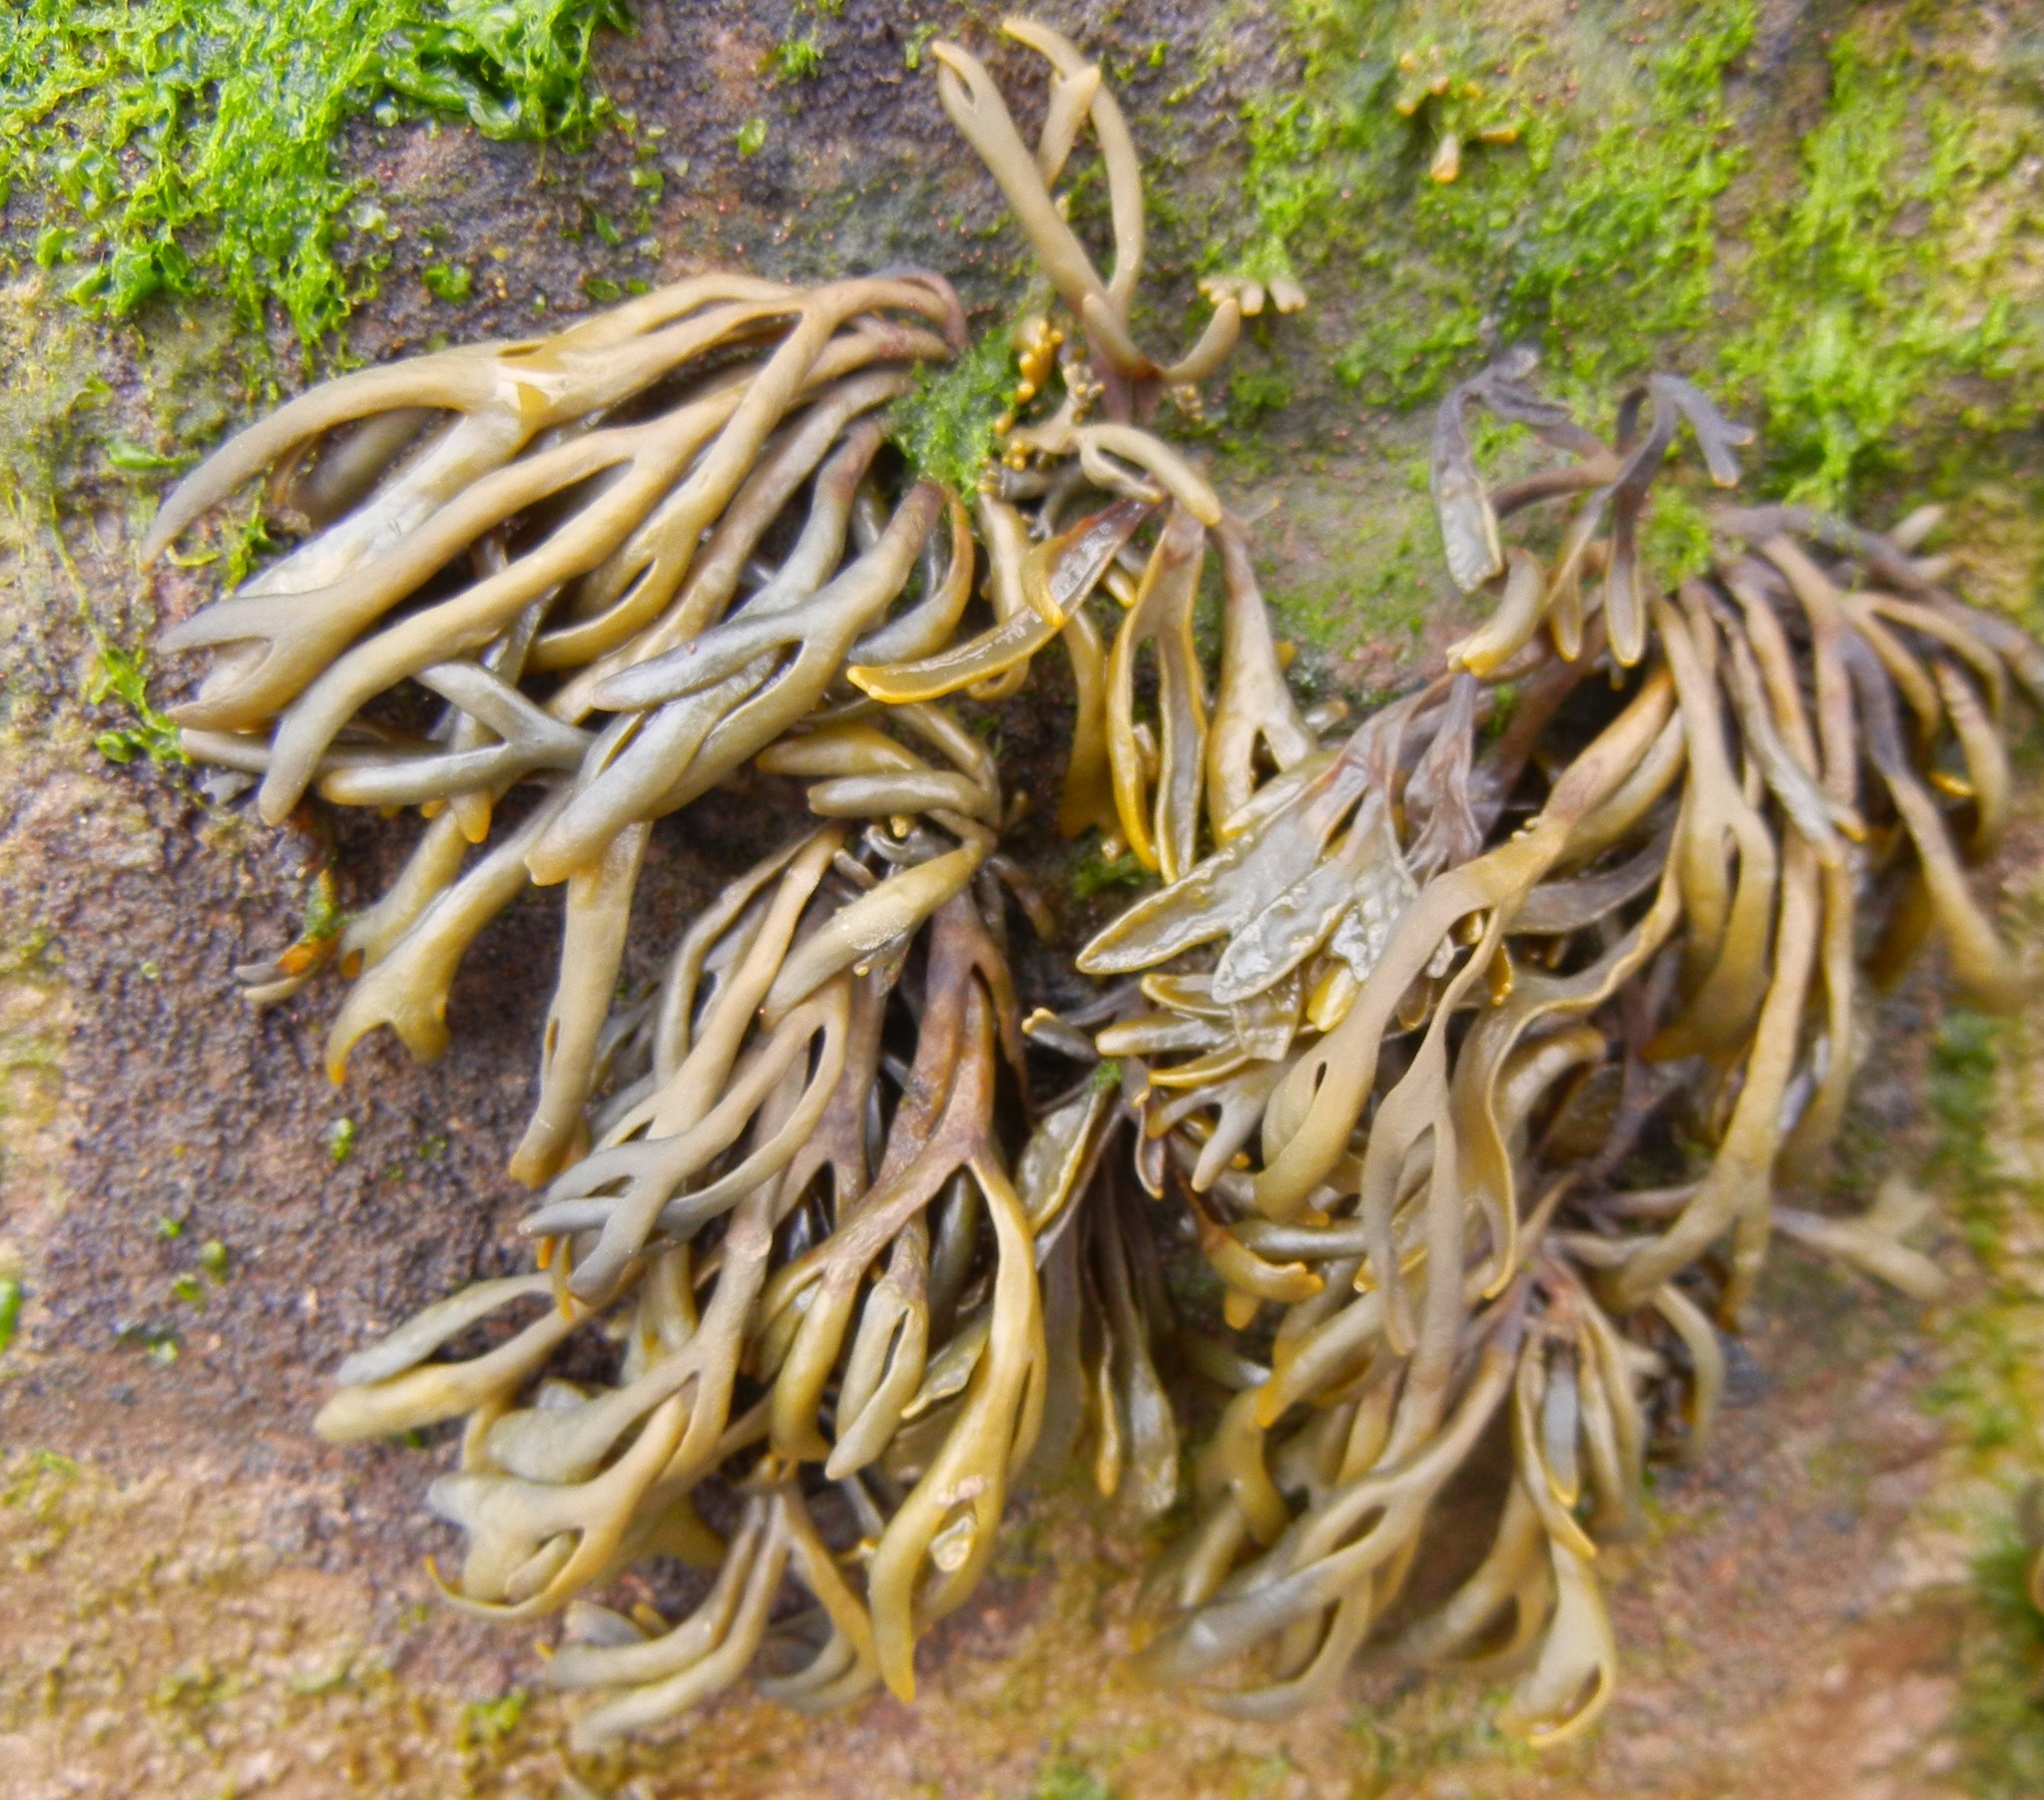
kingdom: Chromista
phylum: Ochrophyta
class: Phaeophyceae
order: Fucales
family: Fucaceae
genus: Pelvetia
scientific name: Pelvetia canaliculata
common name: Channelled wrack
